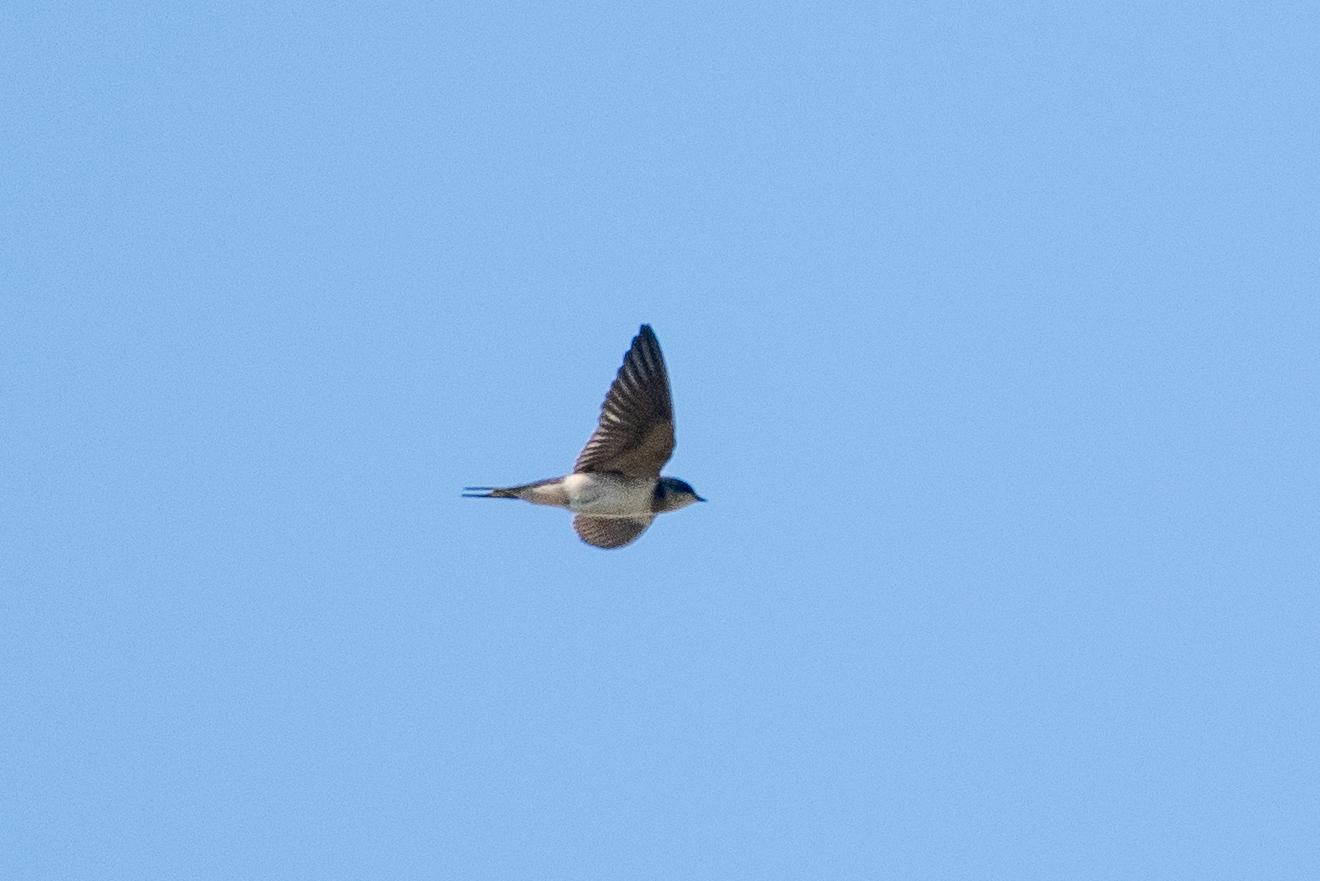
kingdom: Animalia
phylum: Chordata
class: Aves
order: Passeriformes
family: Hirundinidae
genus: Hirundo
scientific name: Hirundo rustica
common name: Barn swallow
